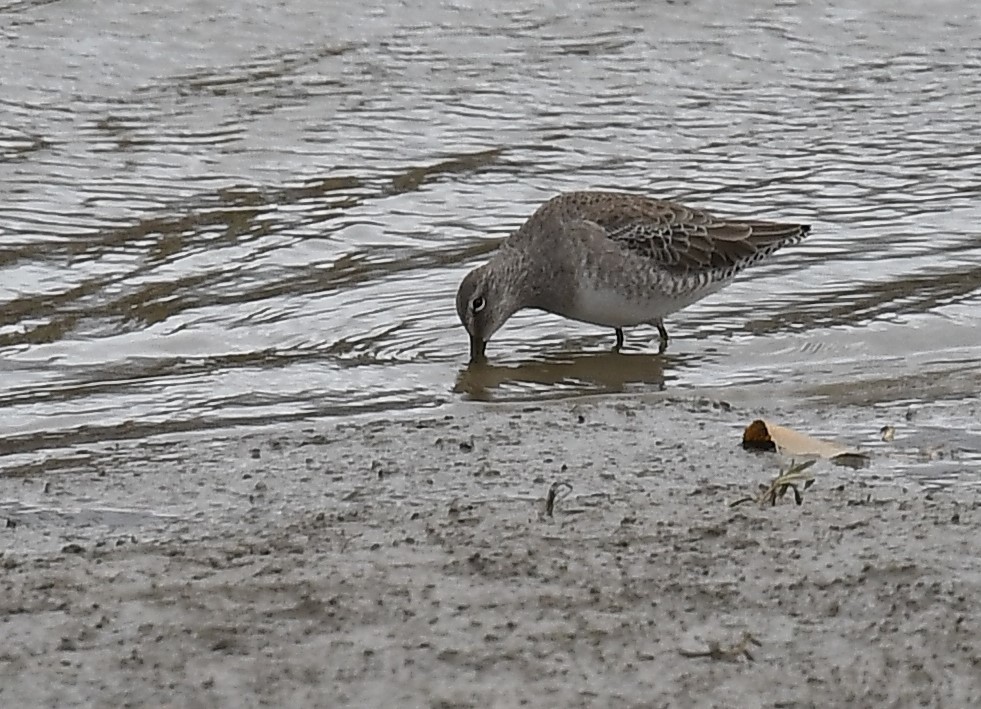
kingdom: Animalia
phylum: Chordata
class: Aves
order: Charadriiformes
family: Scolopacidae
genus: Limnodromus
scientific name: Limnodromus scolopaceus
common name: Long-billed dowitcher
